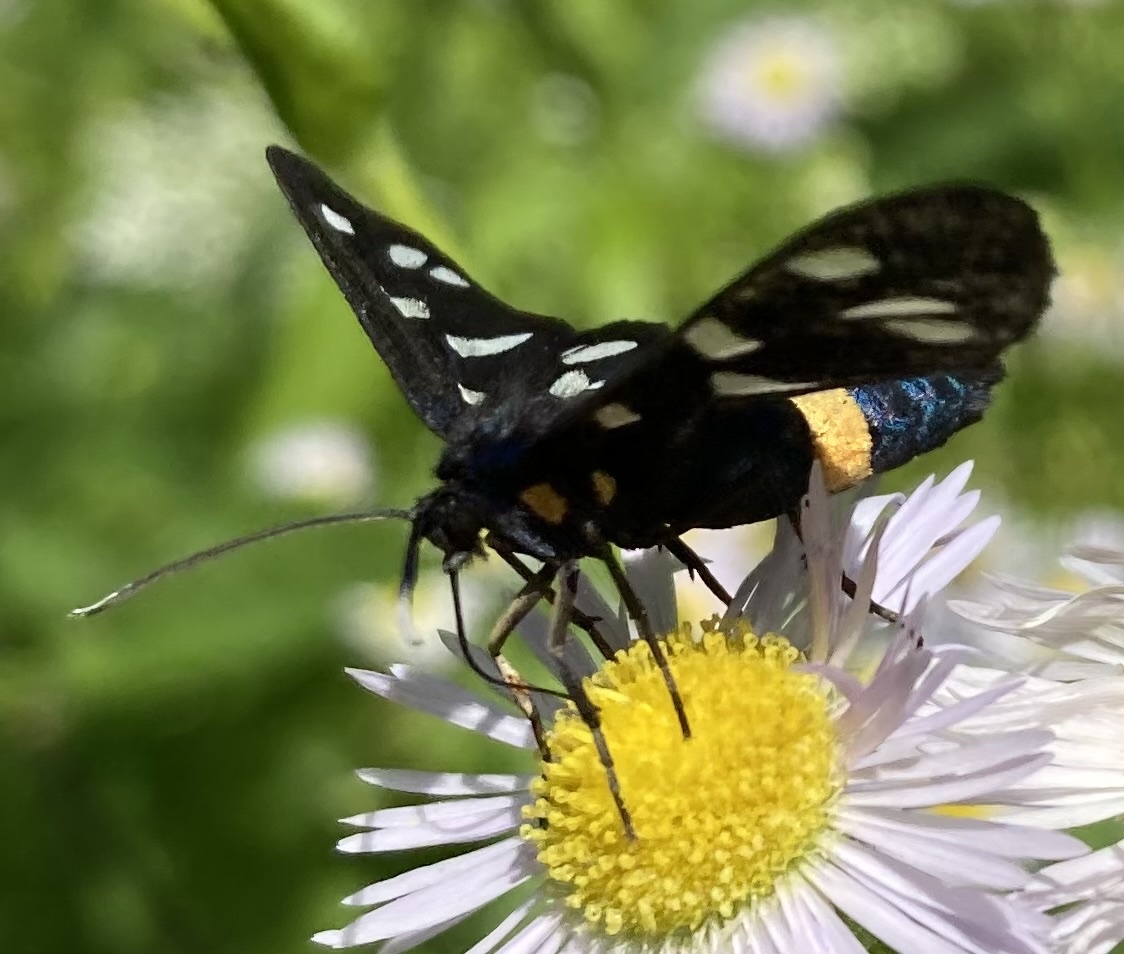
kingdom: Animalia
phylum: Arthropoda
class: Insecta
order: Lepidoptera
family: Erebidae
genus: Amata
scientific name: Amata phegea
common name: Nine-spotted
